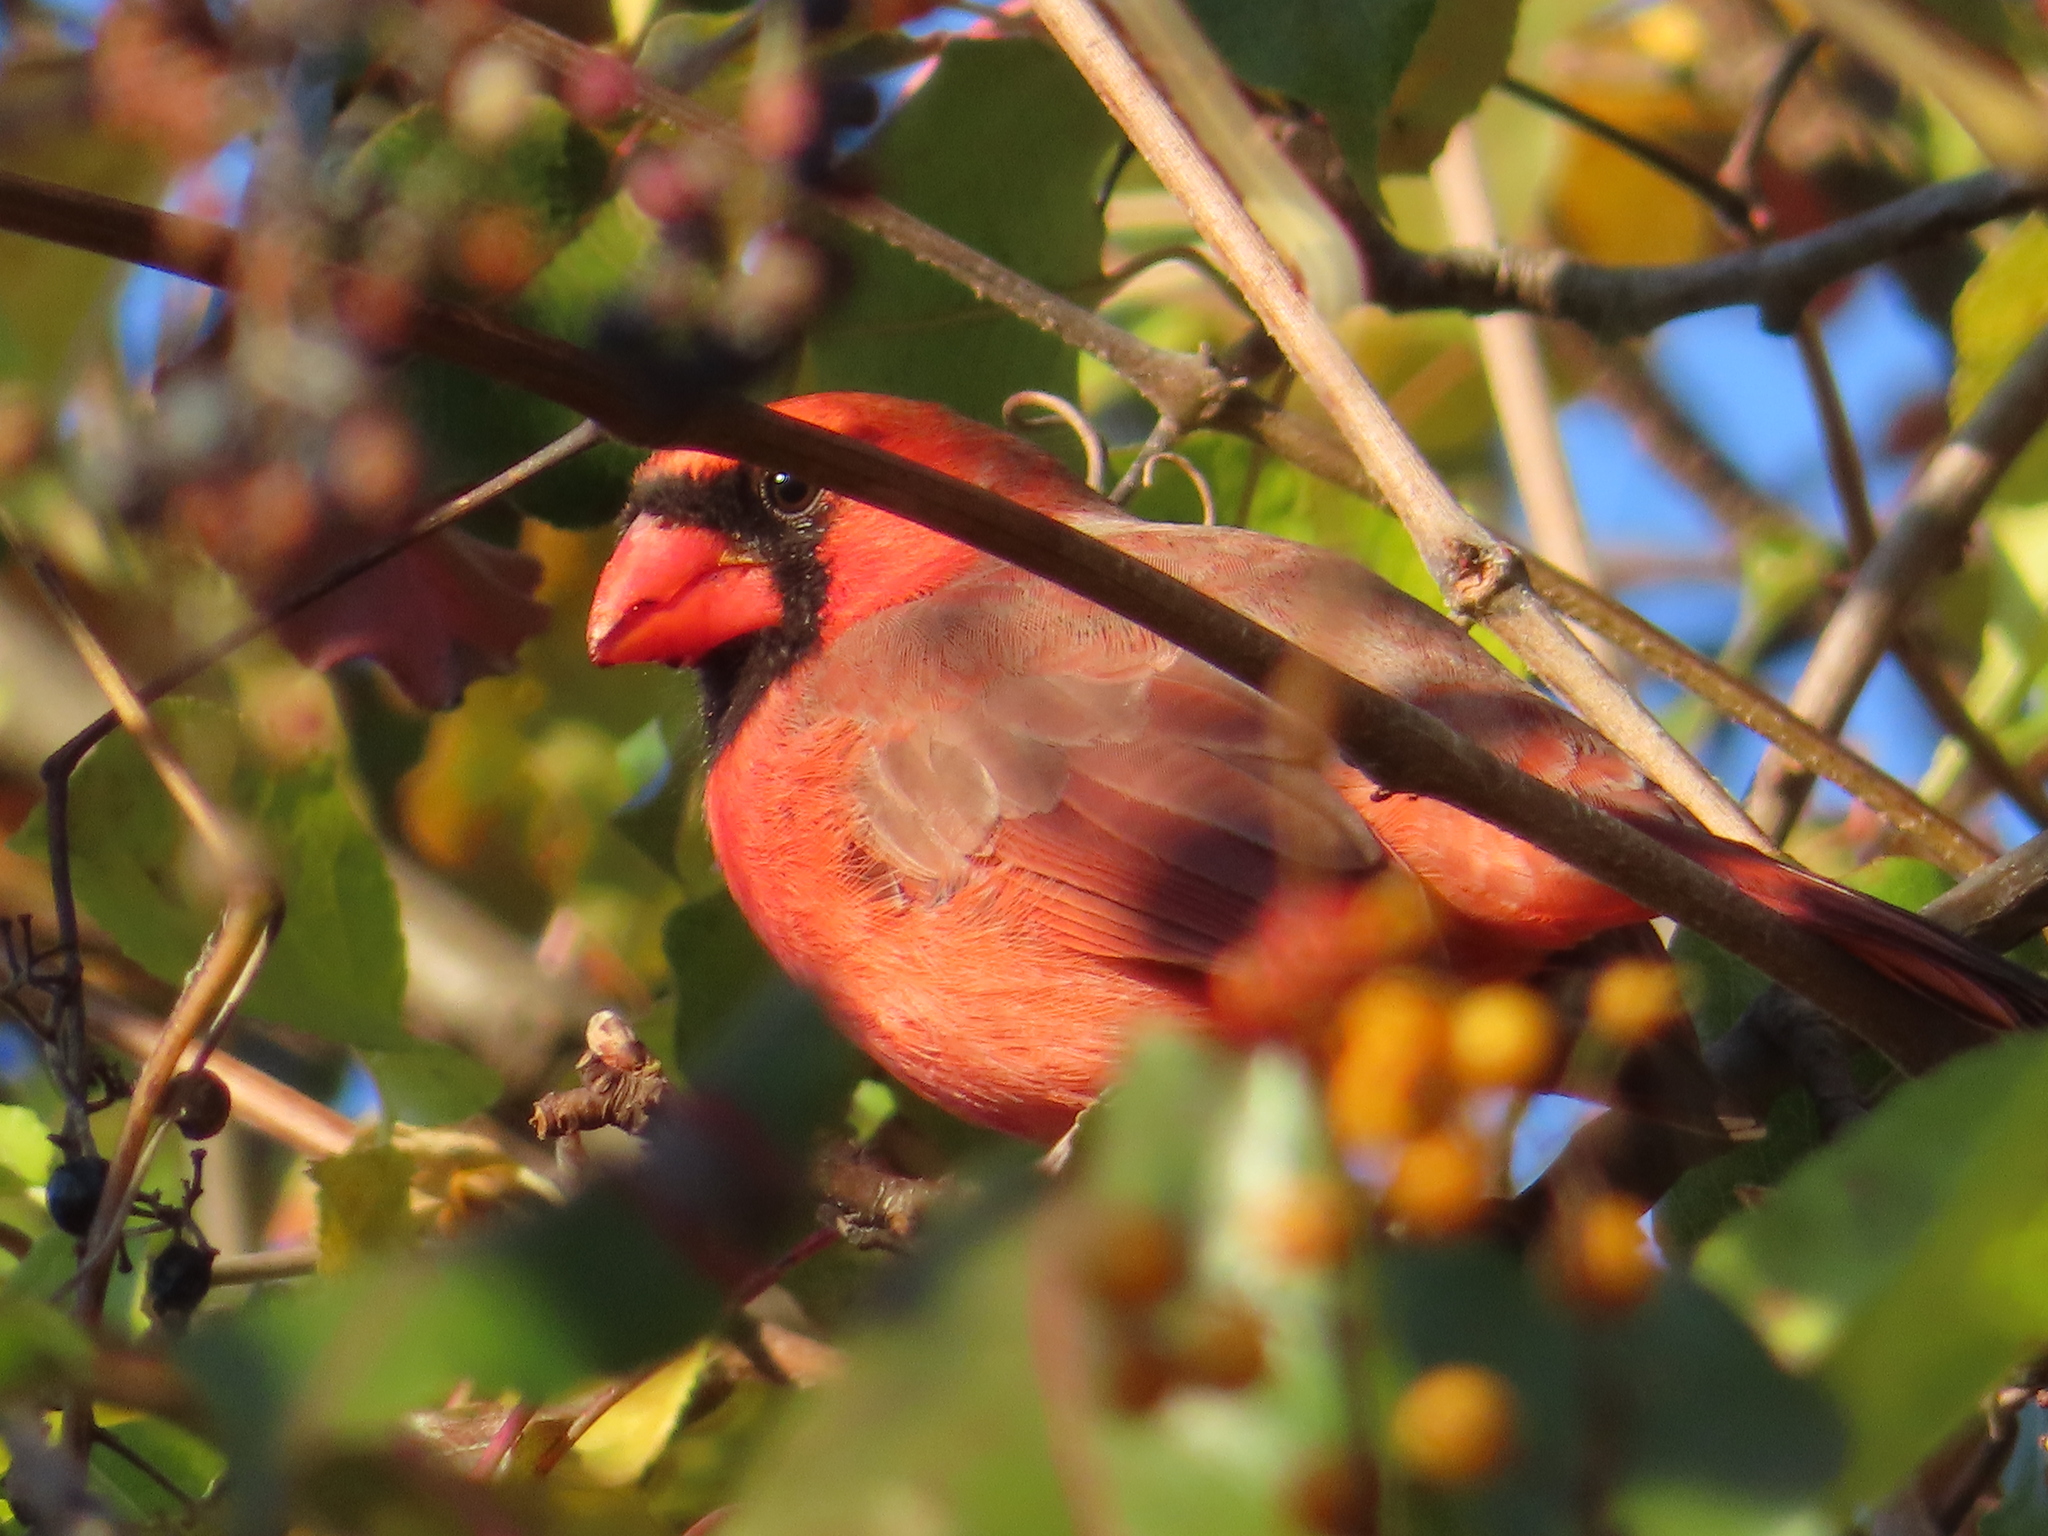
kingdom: Animalia
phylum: Chordata
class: Aves
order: Passeriformes
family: Cardinalidae
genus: Cardinalis
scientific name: Cardinalis cardinalis
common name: Northern cardinal
